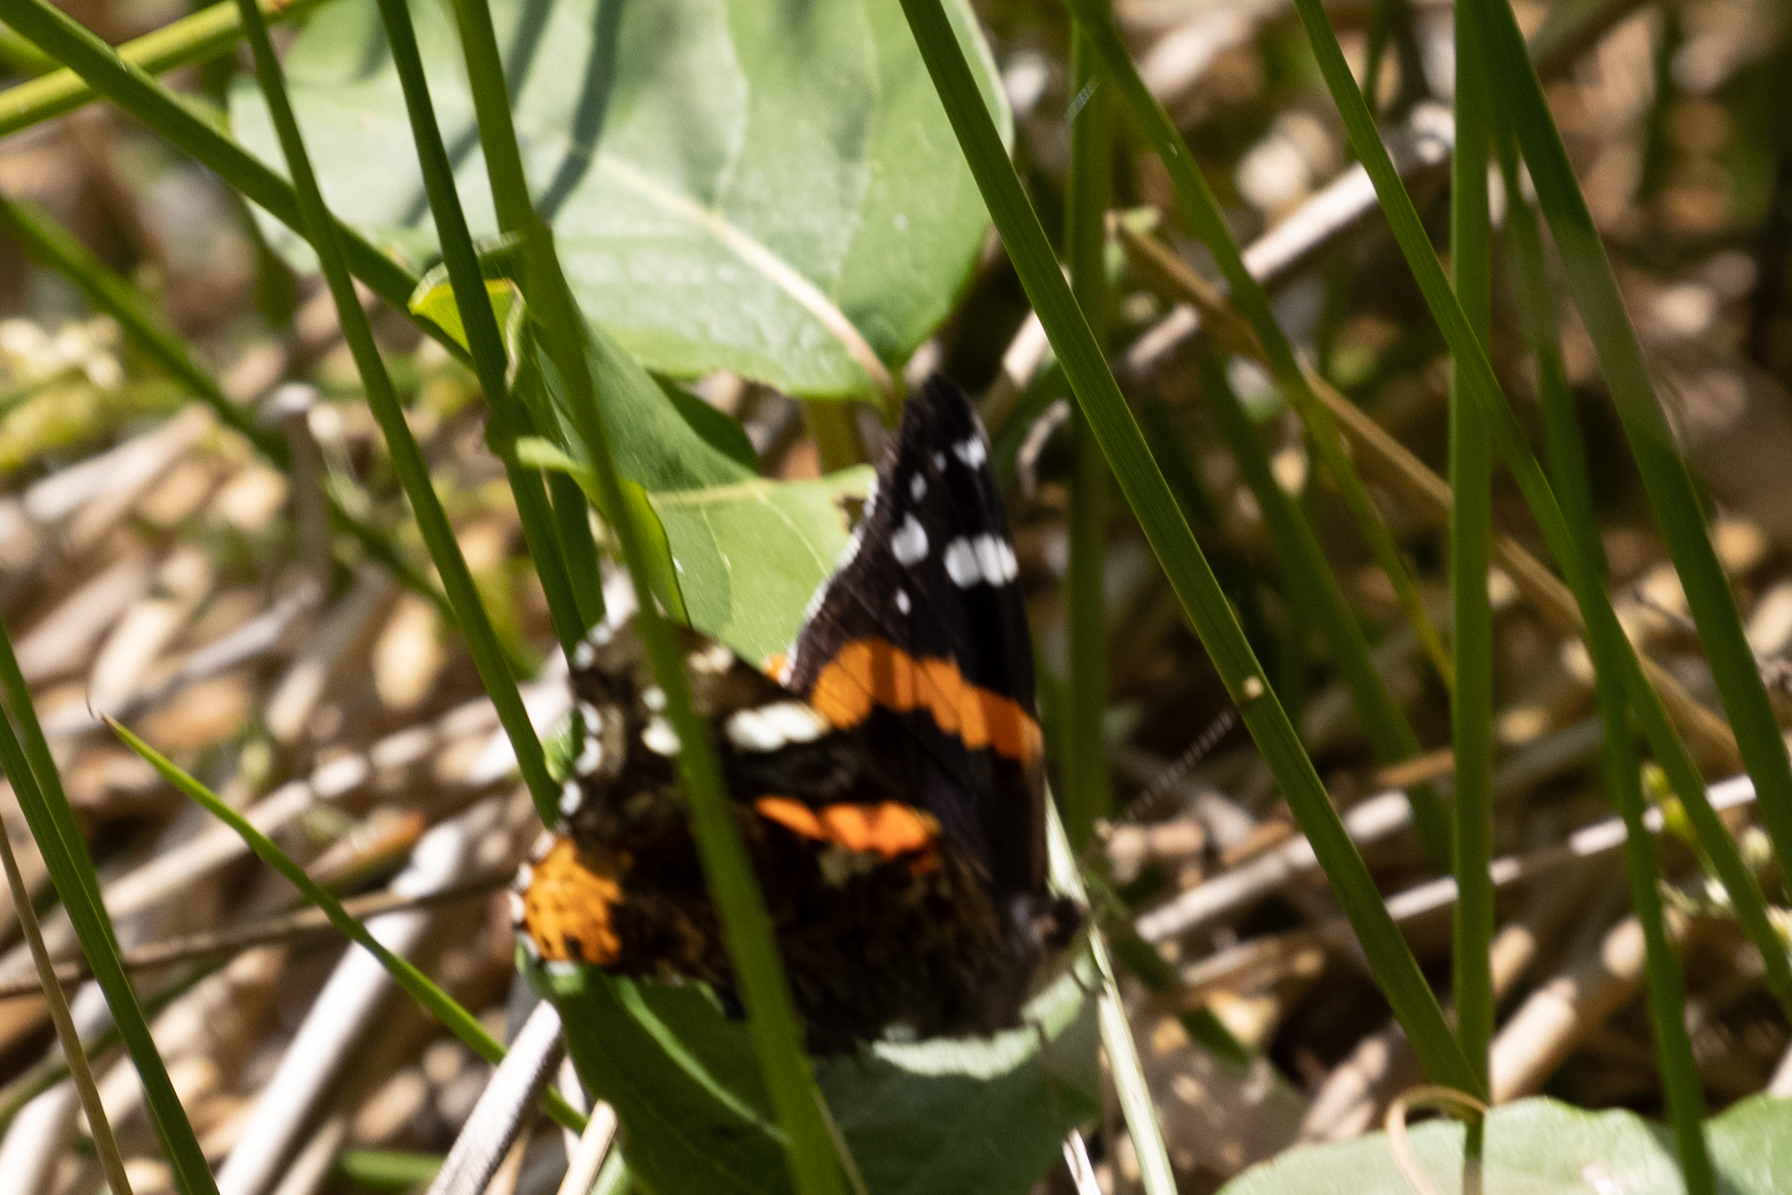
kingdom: Animalia
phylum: Arthropoda
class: Insecta
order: Lepidoptera
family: Nymphalidae
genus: Vanessa
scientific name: Vanessa atalanta
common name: Red admiral
